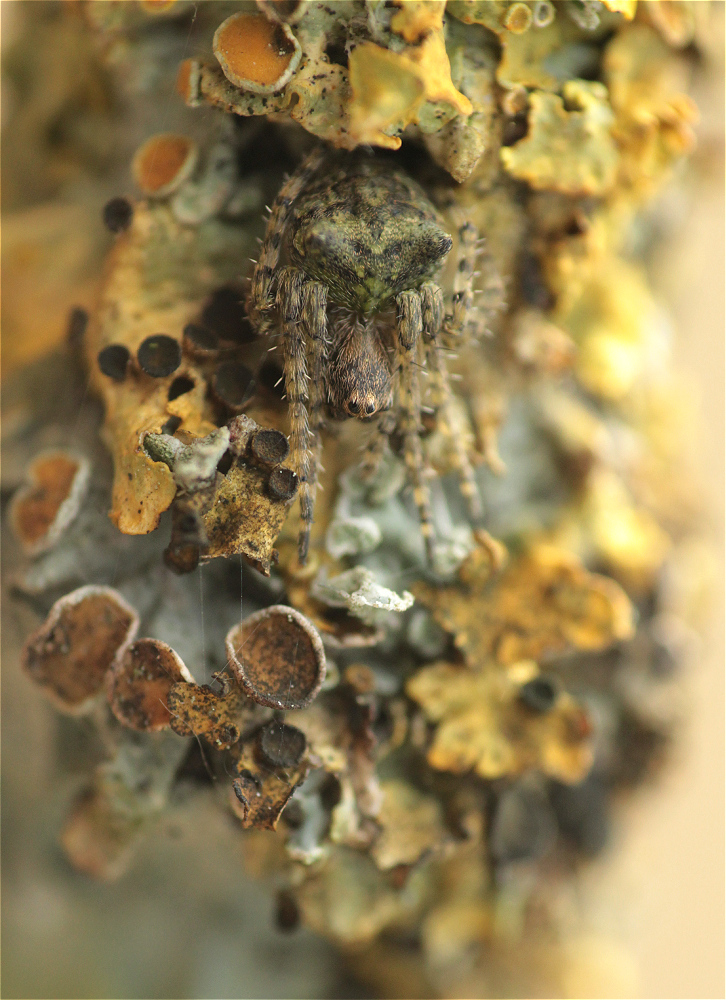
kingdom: Animalia
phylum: Arthropoda
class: Arachnida
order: Araneae
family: Araneidae
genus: Gibbaranea
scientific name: Gibbaranea gibbosa
